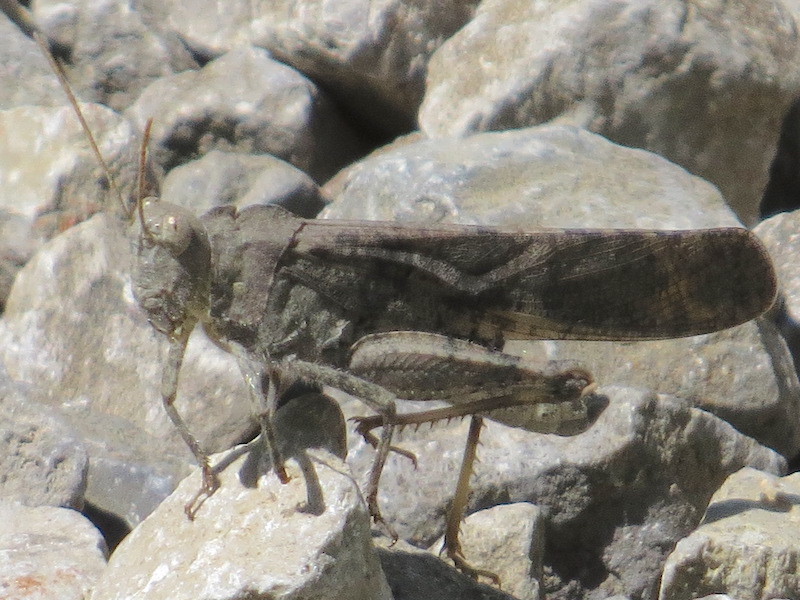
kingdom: Animalia
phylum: Arthropoda
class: Insecta
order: Orthoptera
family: Acrididae
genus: Dissosteira
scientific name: Dissosteira carolina
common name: Carolina grasshopper
